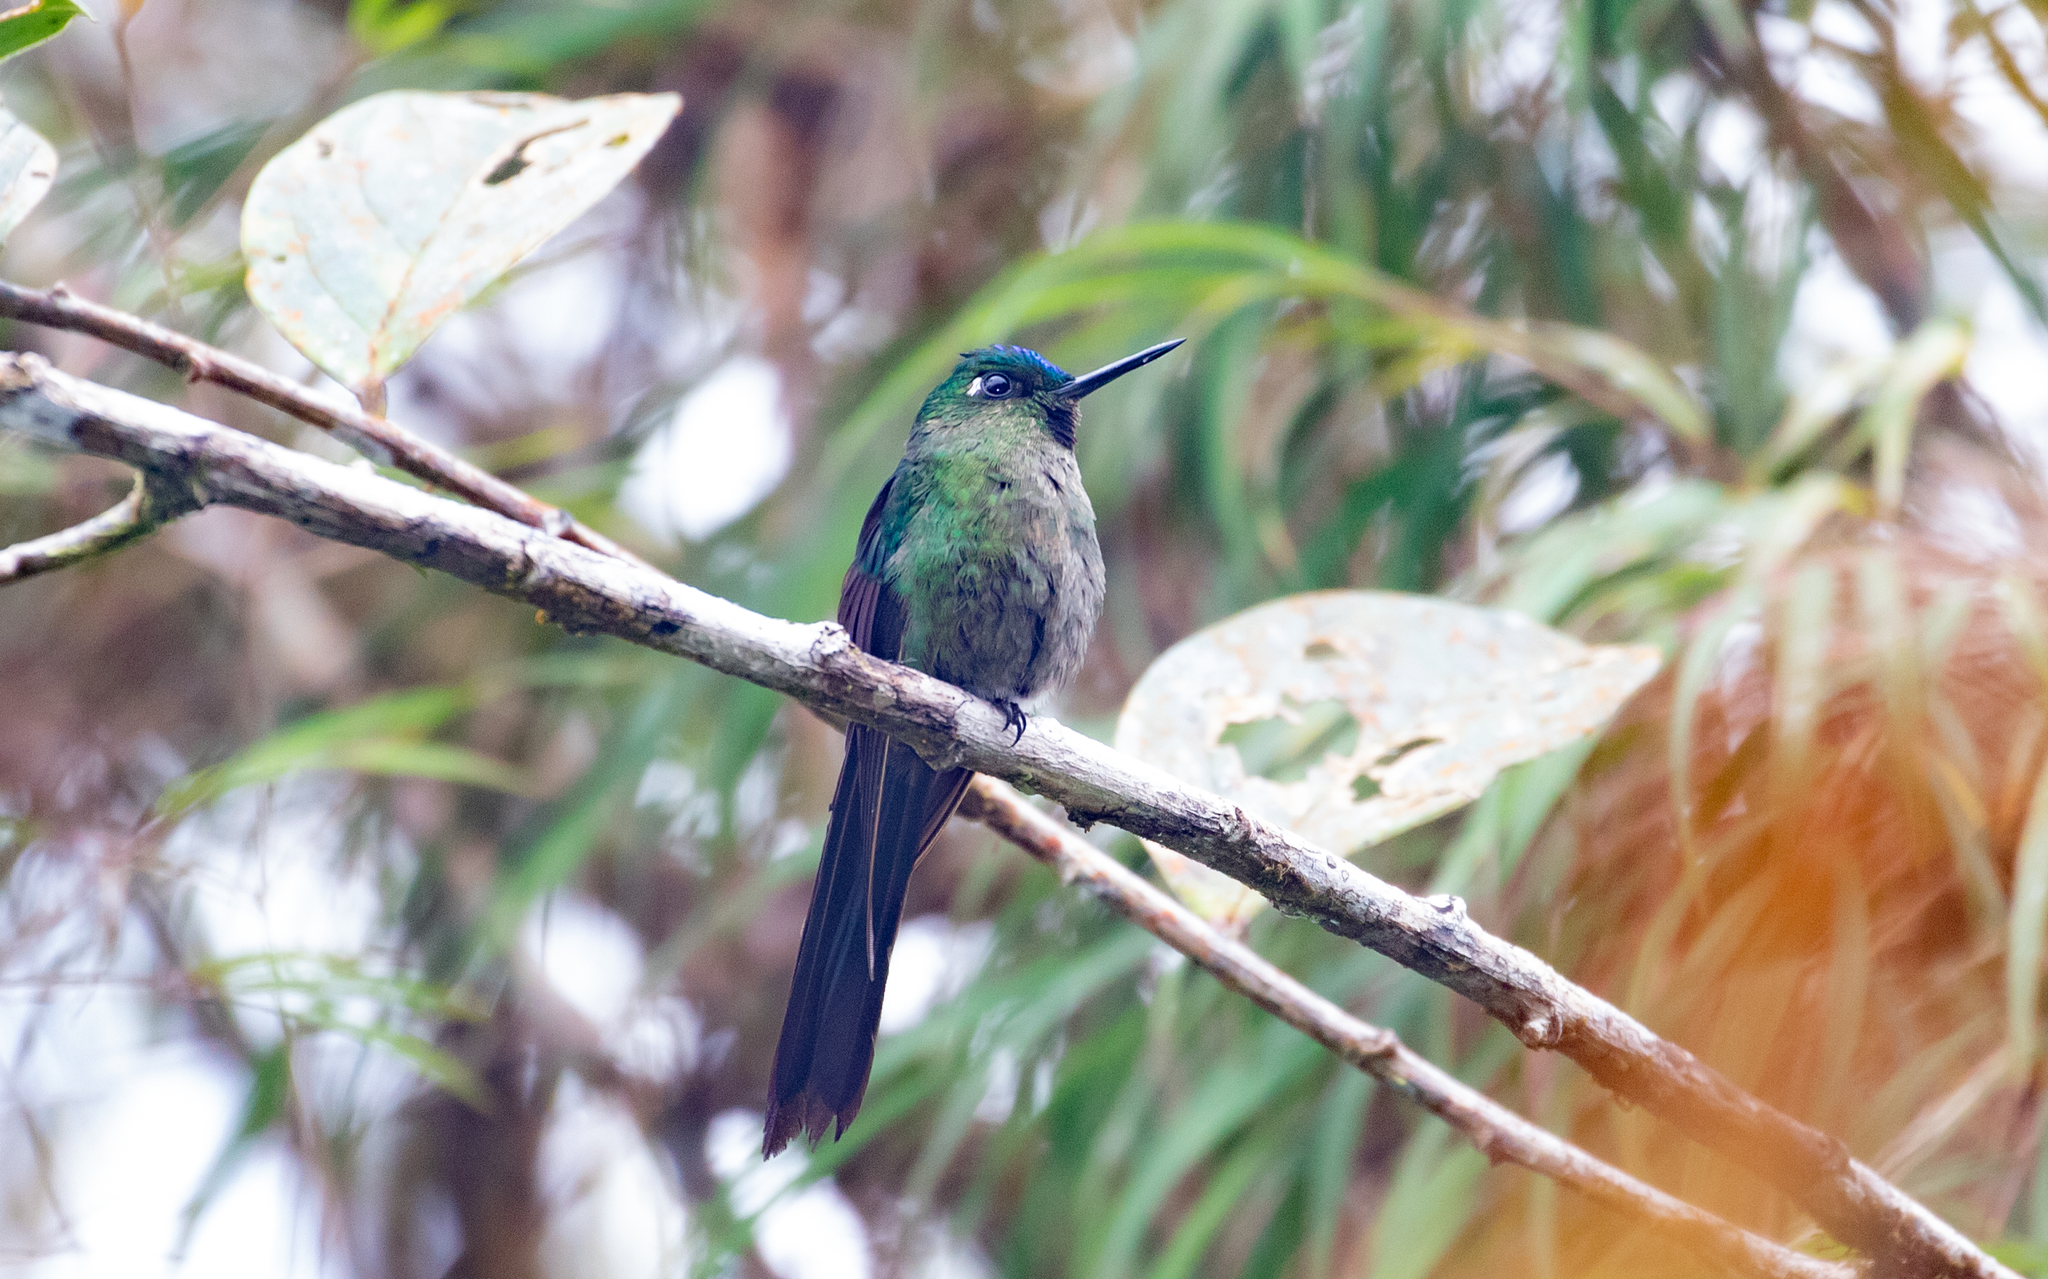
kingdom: Animalia
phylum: Chordata
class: Aves
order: Apodiformes
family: Trochilidae
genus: Aglaiocercus
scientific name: Aglaiocercus coelestis
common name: Violet-tailed sylph
